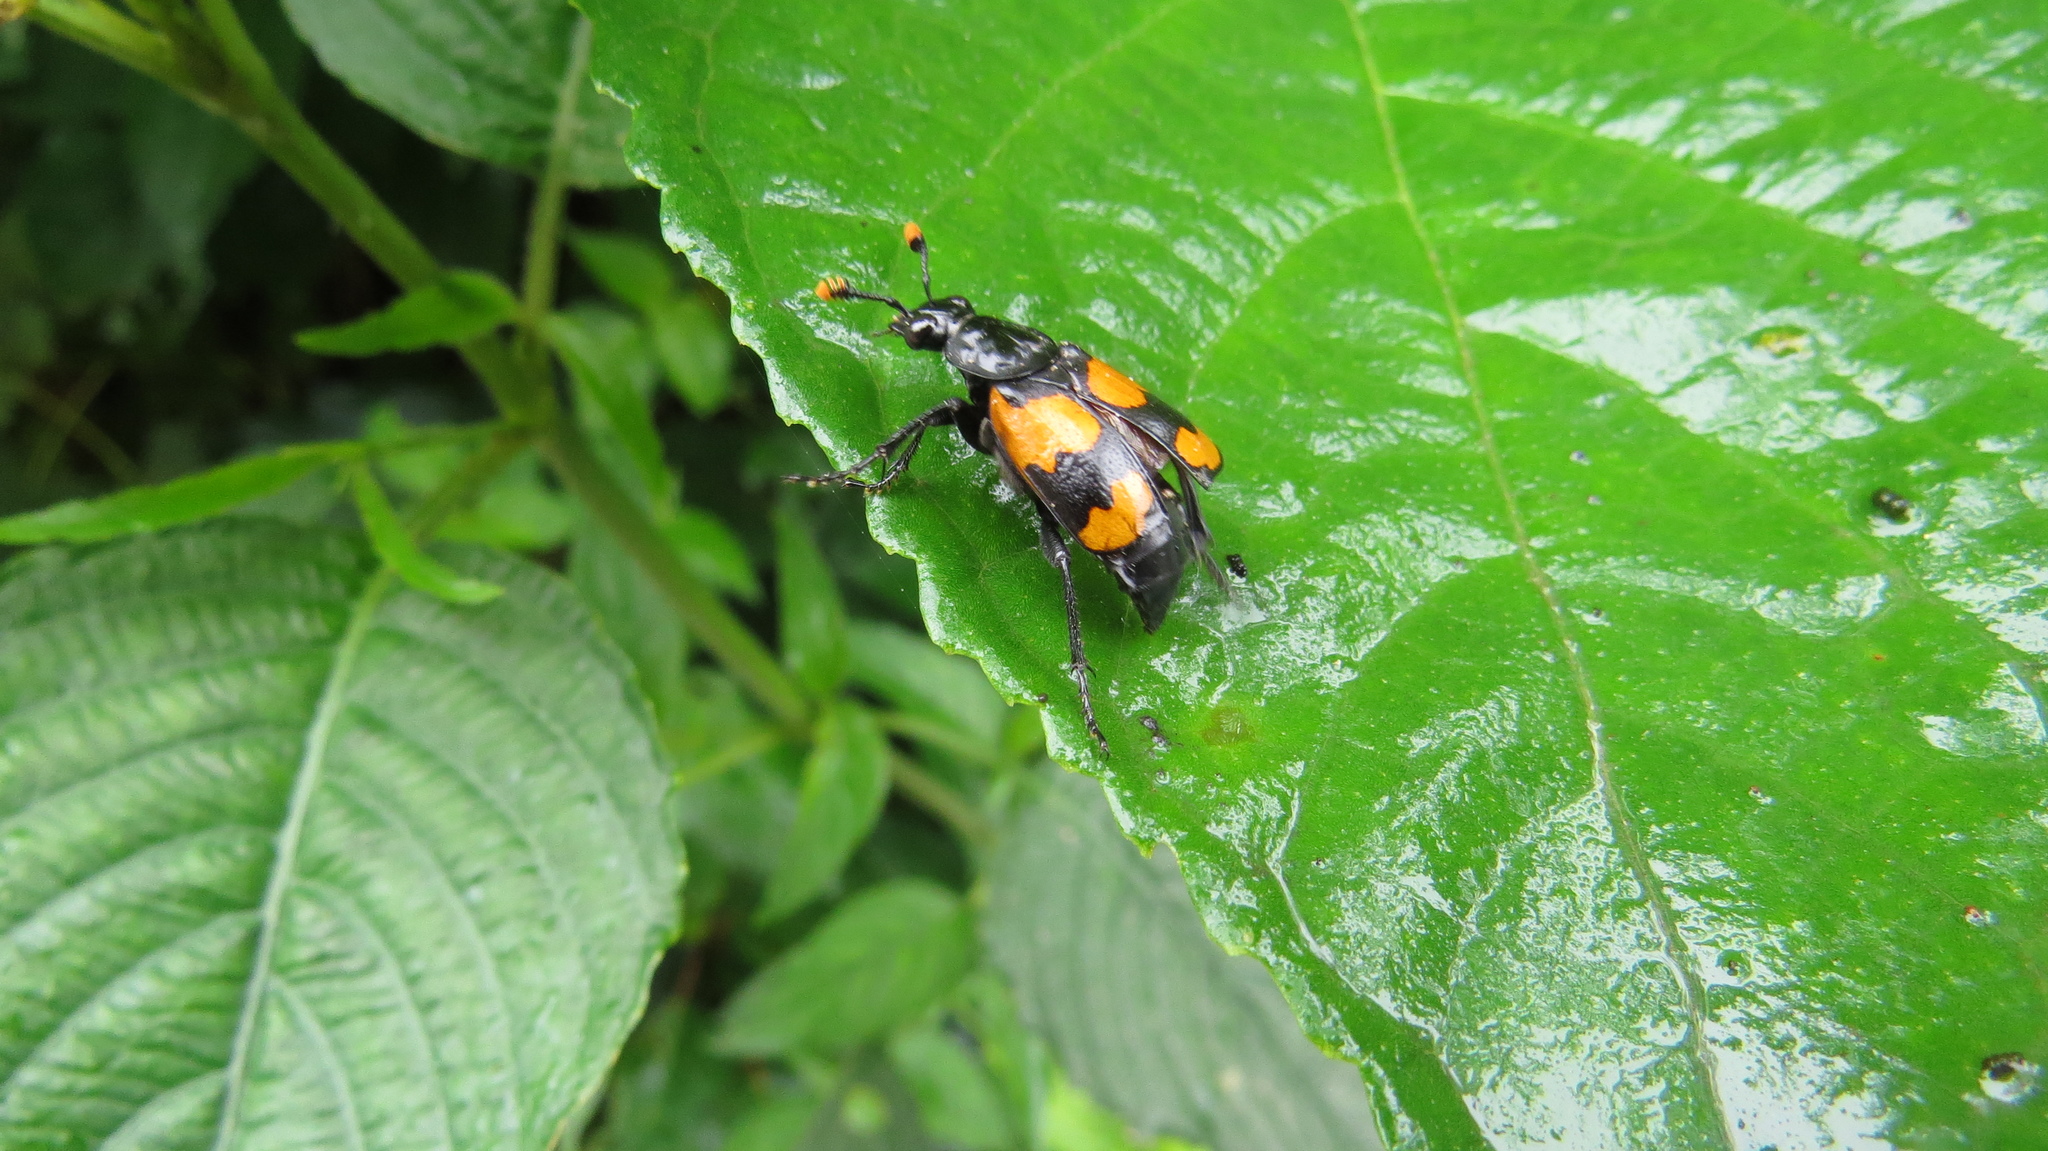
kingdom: Animalia
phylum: Arthropoda
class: Insecta
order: Coleoptera
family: Staphylinidae
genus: Nicrophorus
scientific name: Nicrophorus scrutator
